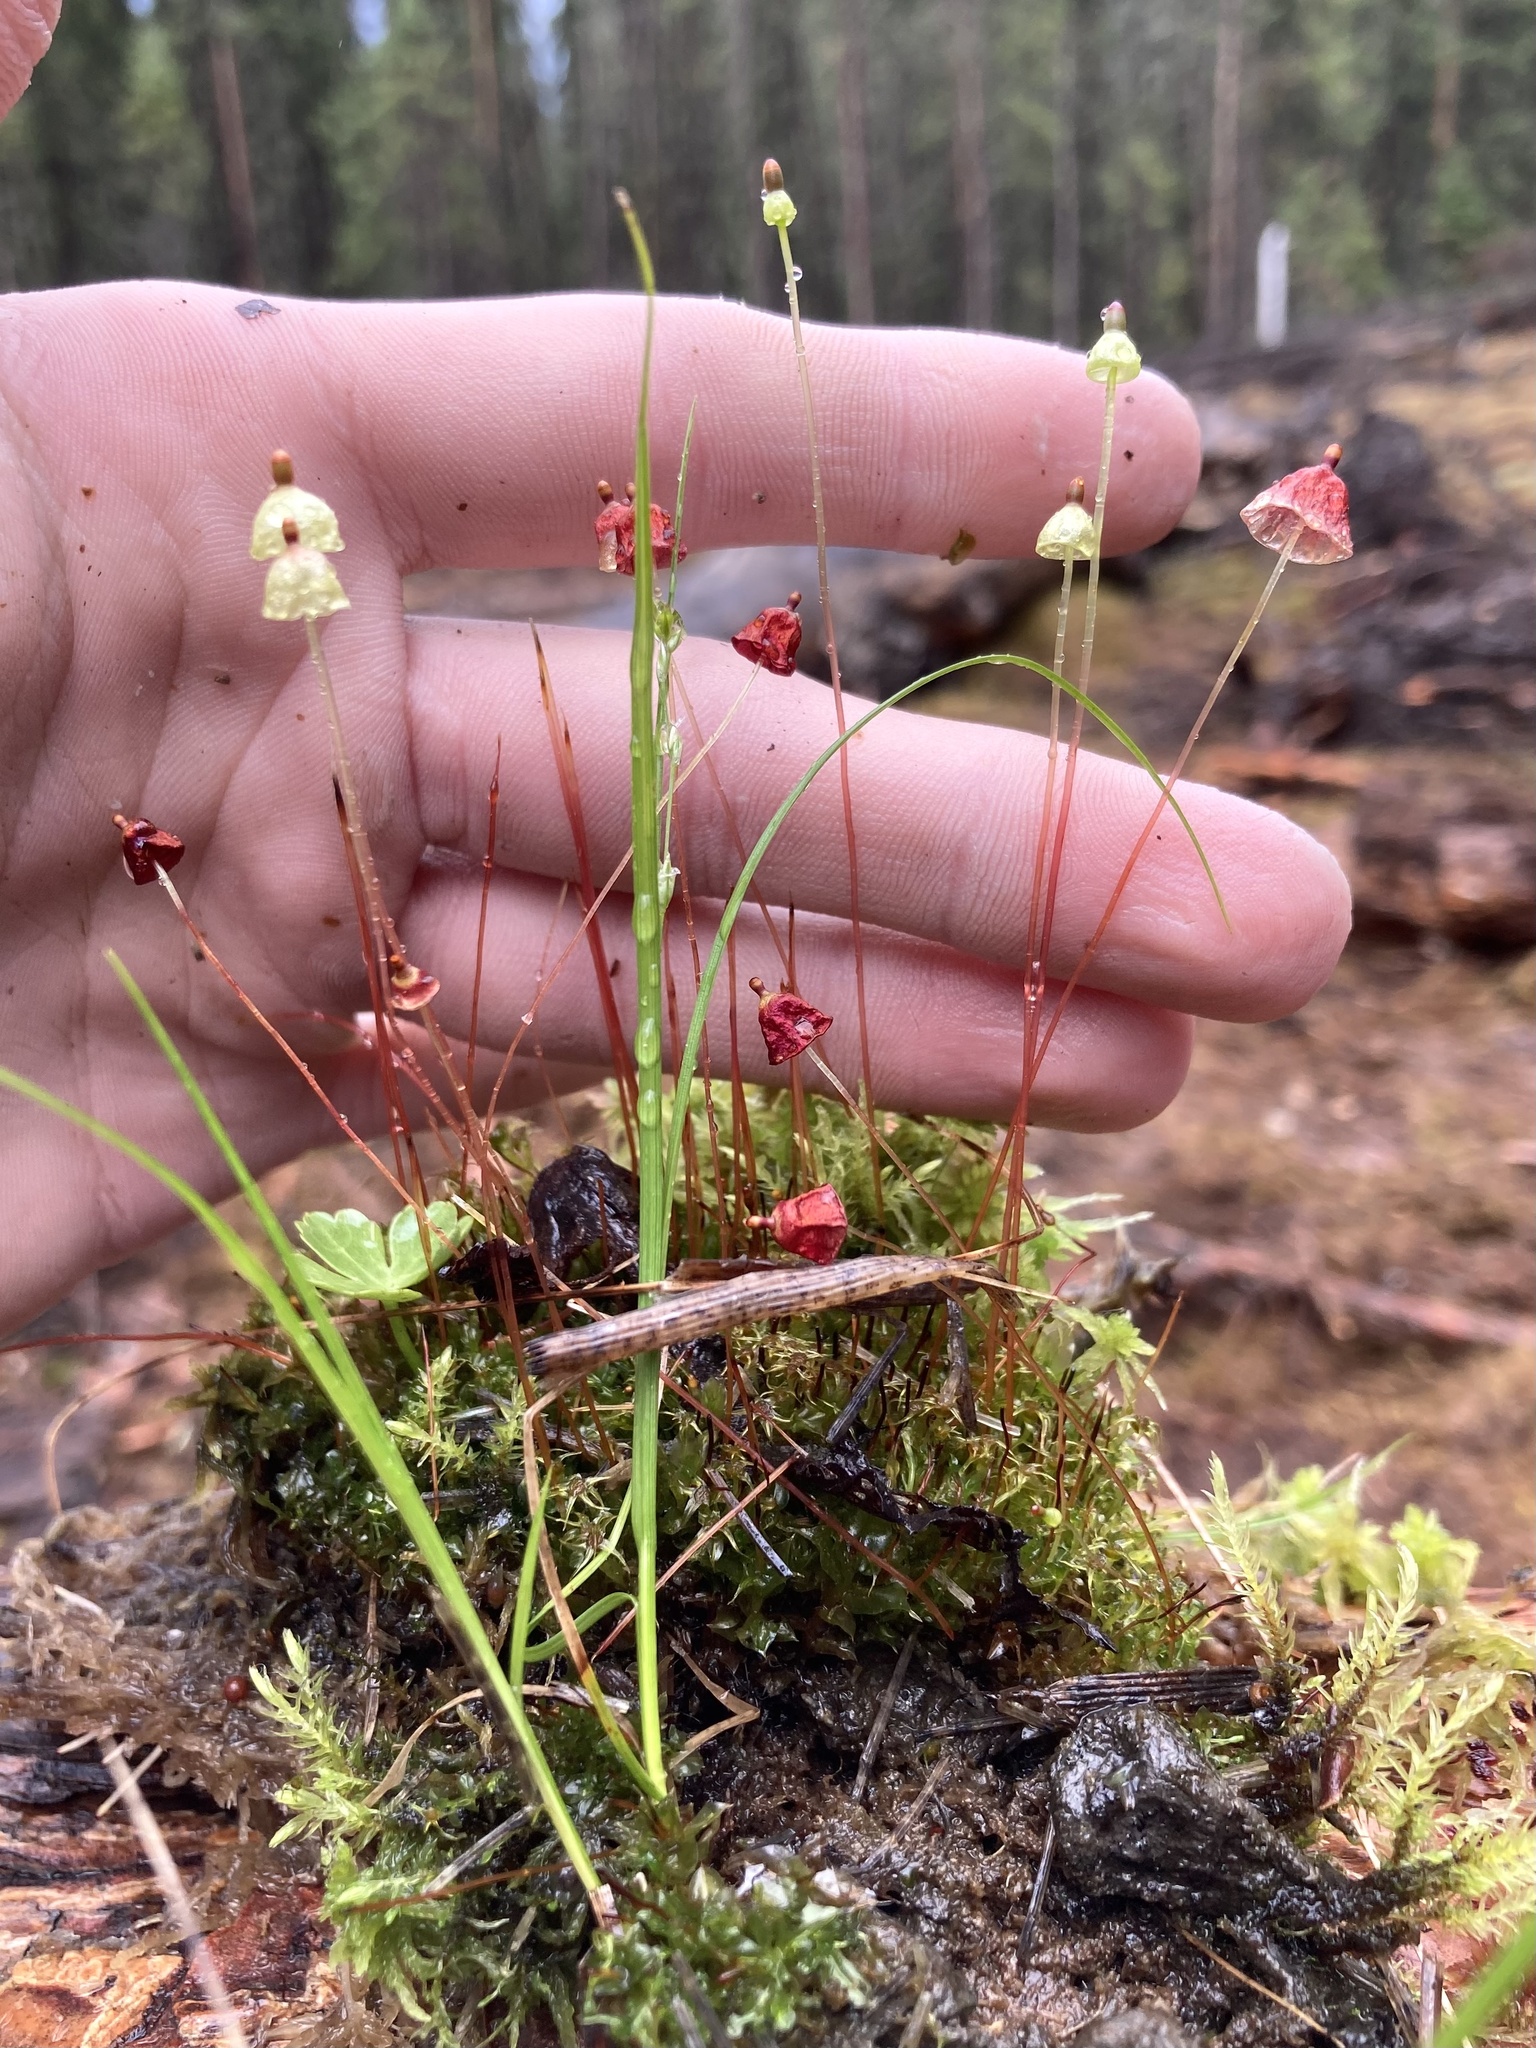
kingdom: Plantae
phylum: Bryophyta
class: Bryopsida
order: Splachnales
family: Splachnaceae
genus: Splachnum
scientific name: Splachnum rubrum
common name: Red dung moss
